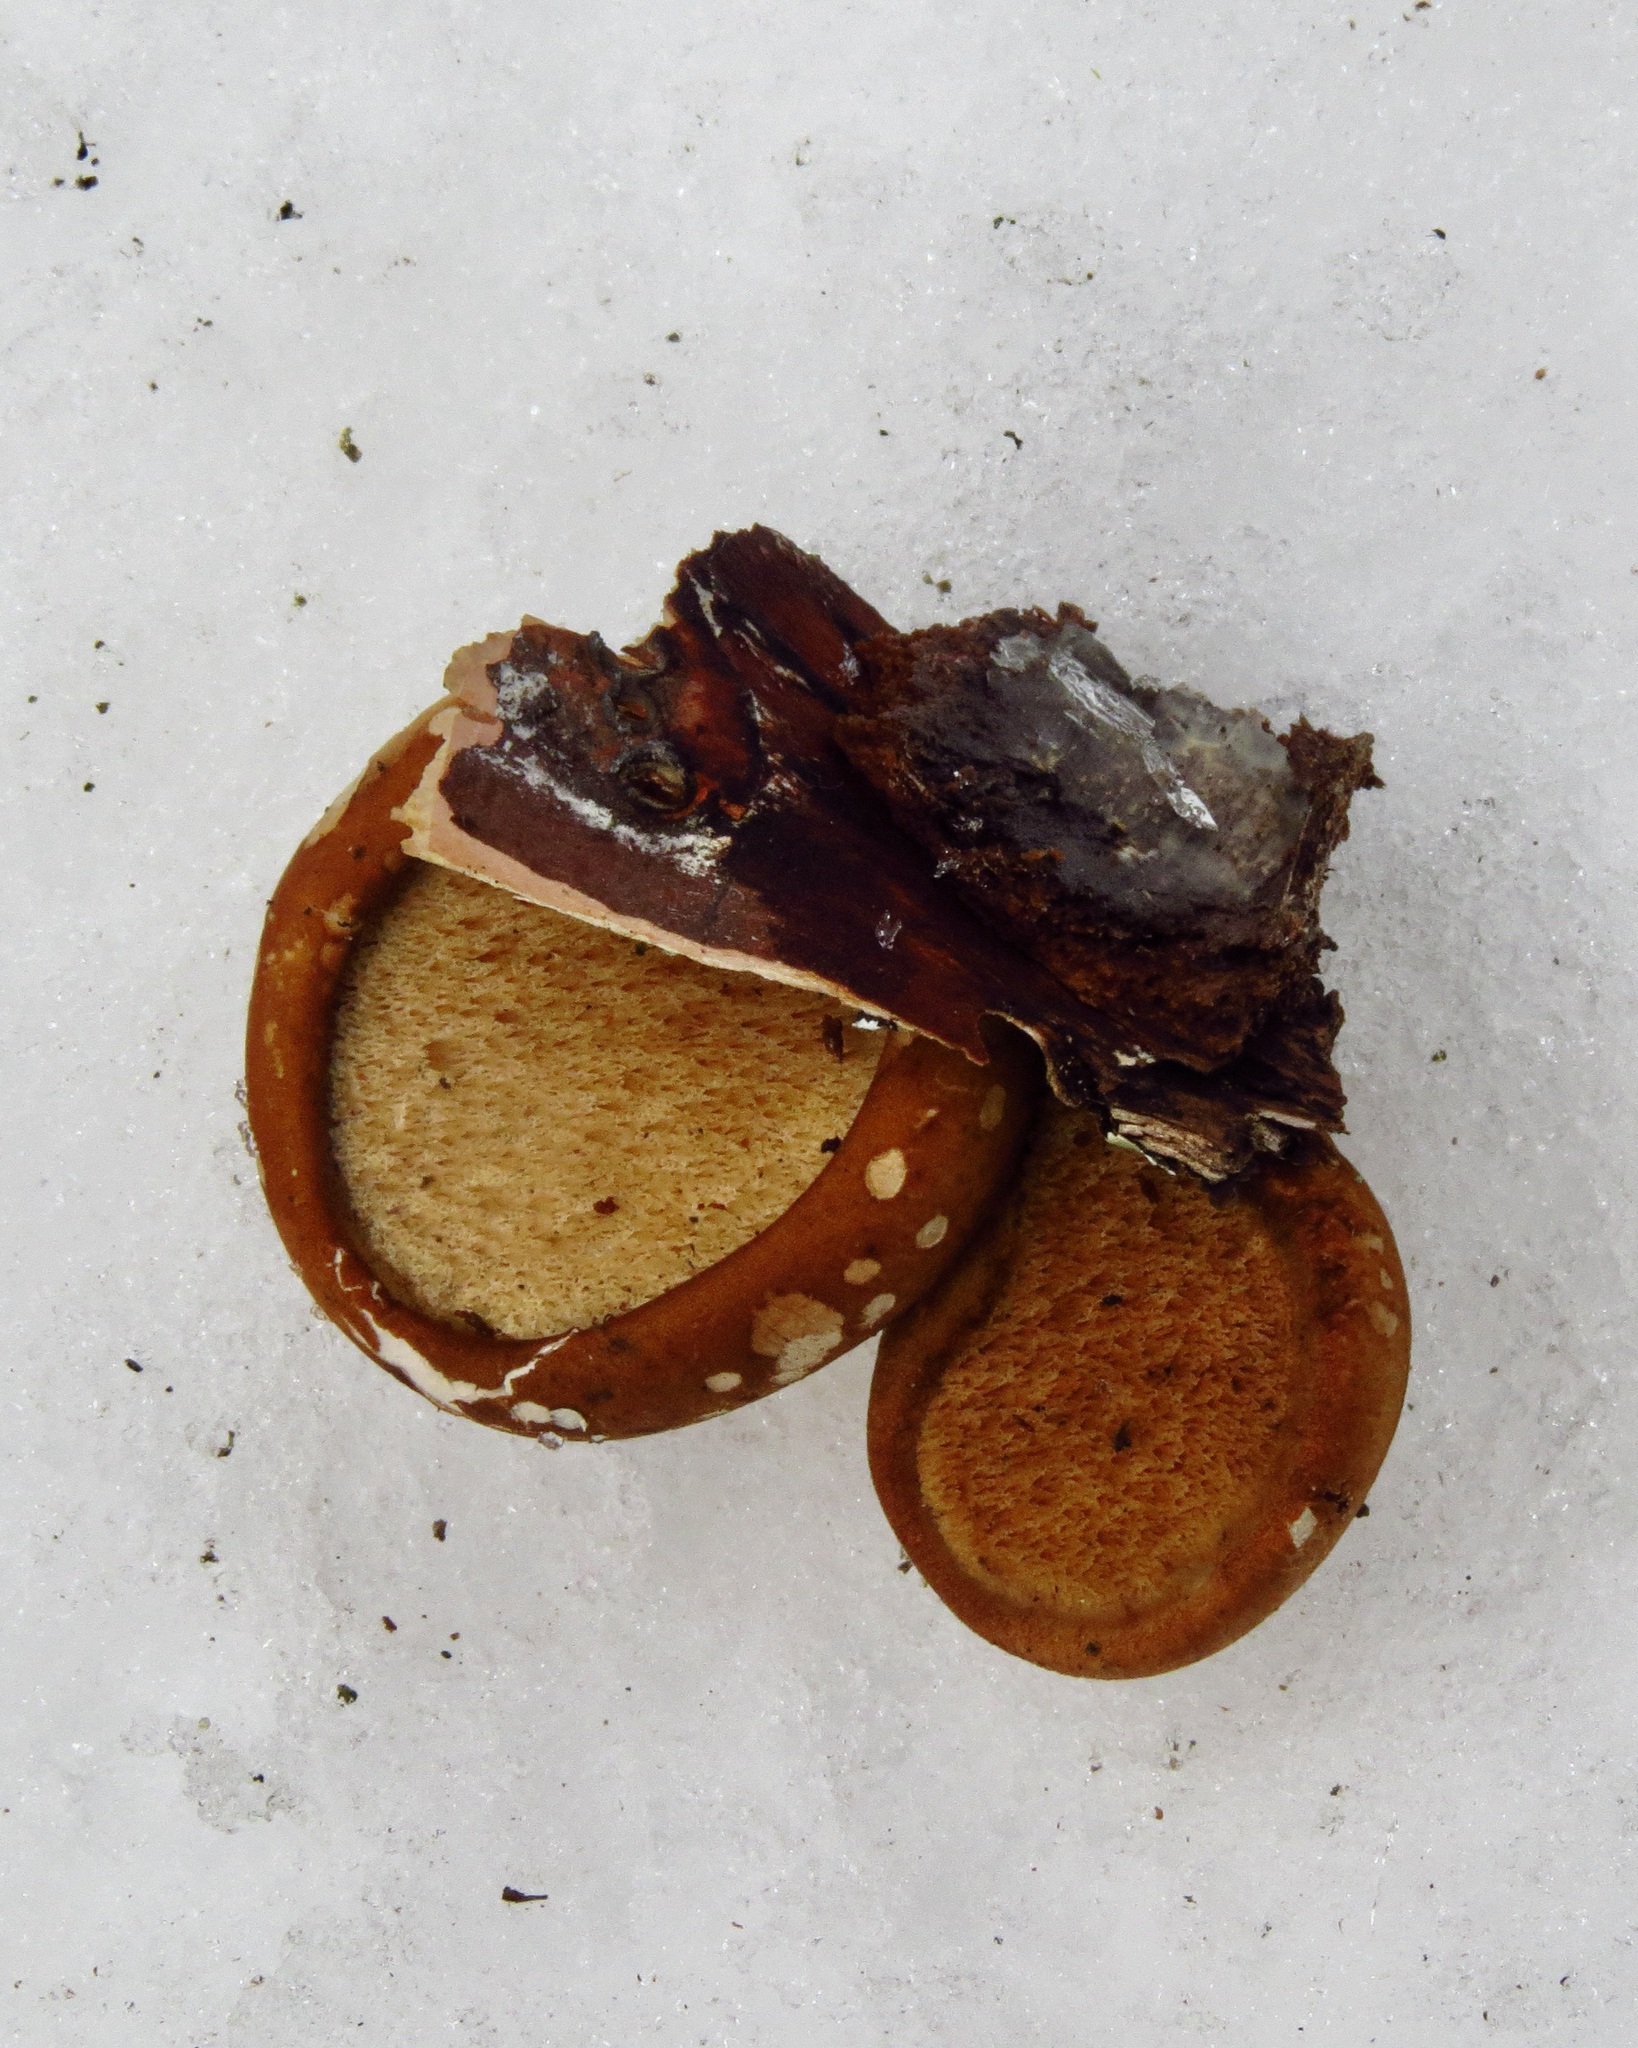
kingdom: Fungi
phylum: Basidiomycota
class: Agaricomycetes
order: Polyporales
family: Fomitopsidaceae
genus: Fomitopsis
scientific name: Fomitopsis betulina
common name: Birch polypore
